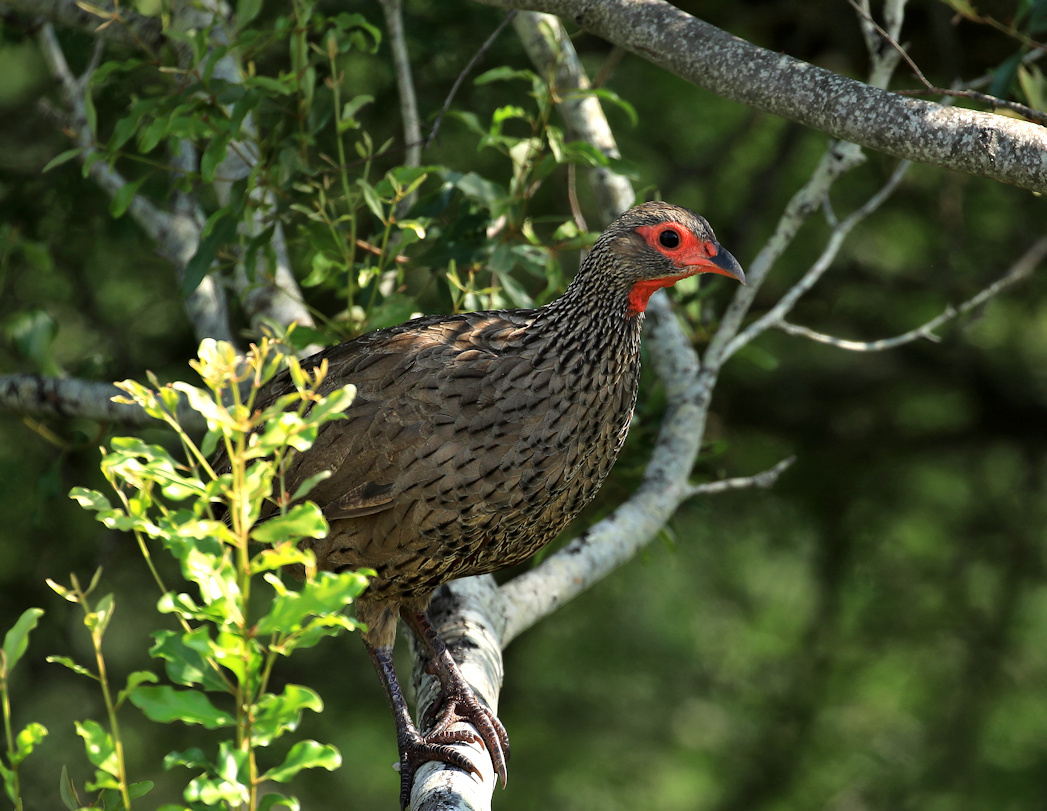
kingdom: Animalia
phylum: Chordata
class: Aves
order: Galliformes
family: Phasianidae
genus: Pternistis
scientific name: Pternistis swainsonii
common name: Swainson's spurfowl
